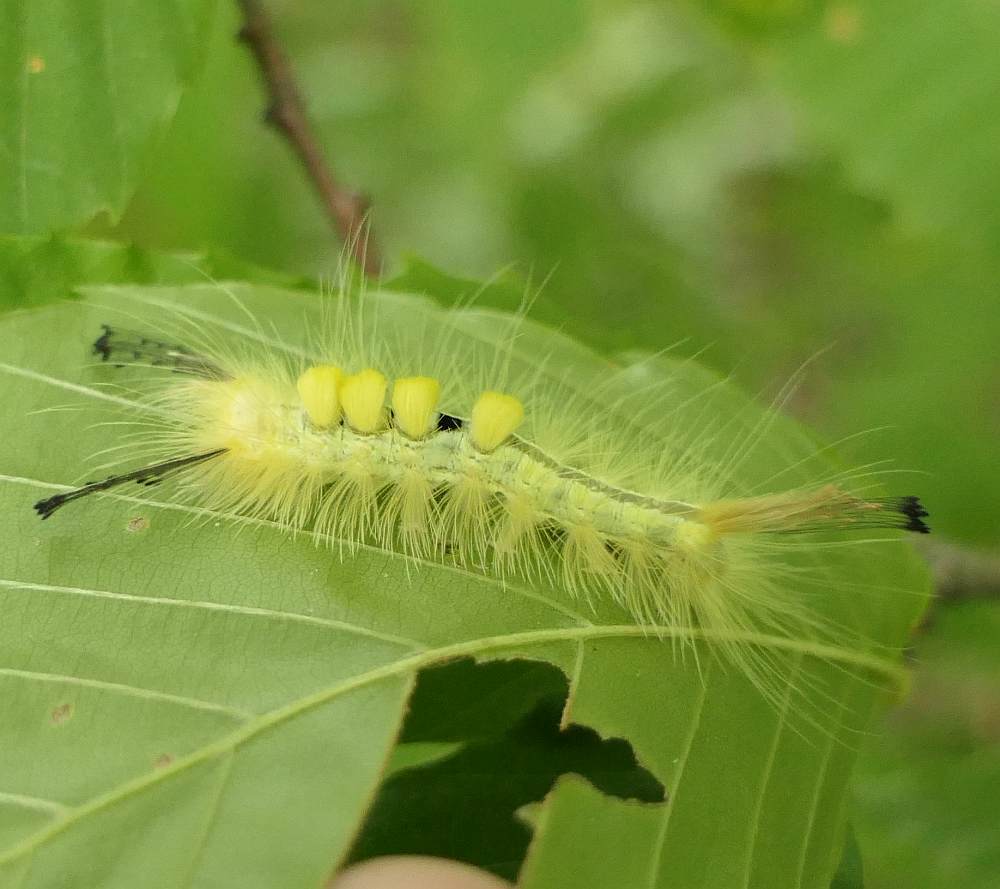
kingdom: Animalia
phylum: Arthropoda
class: Insecta
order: Lepidoptera
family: Erebidae
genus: Orgyia
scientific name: Orgyia definita
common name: Definite tussock moth
